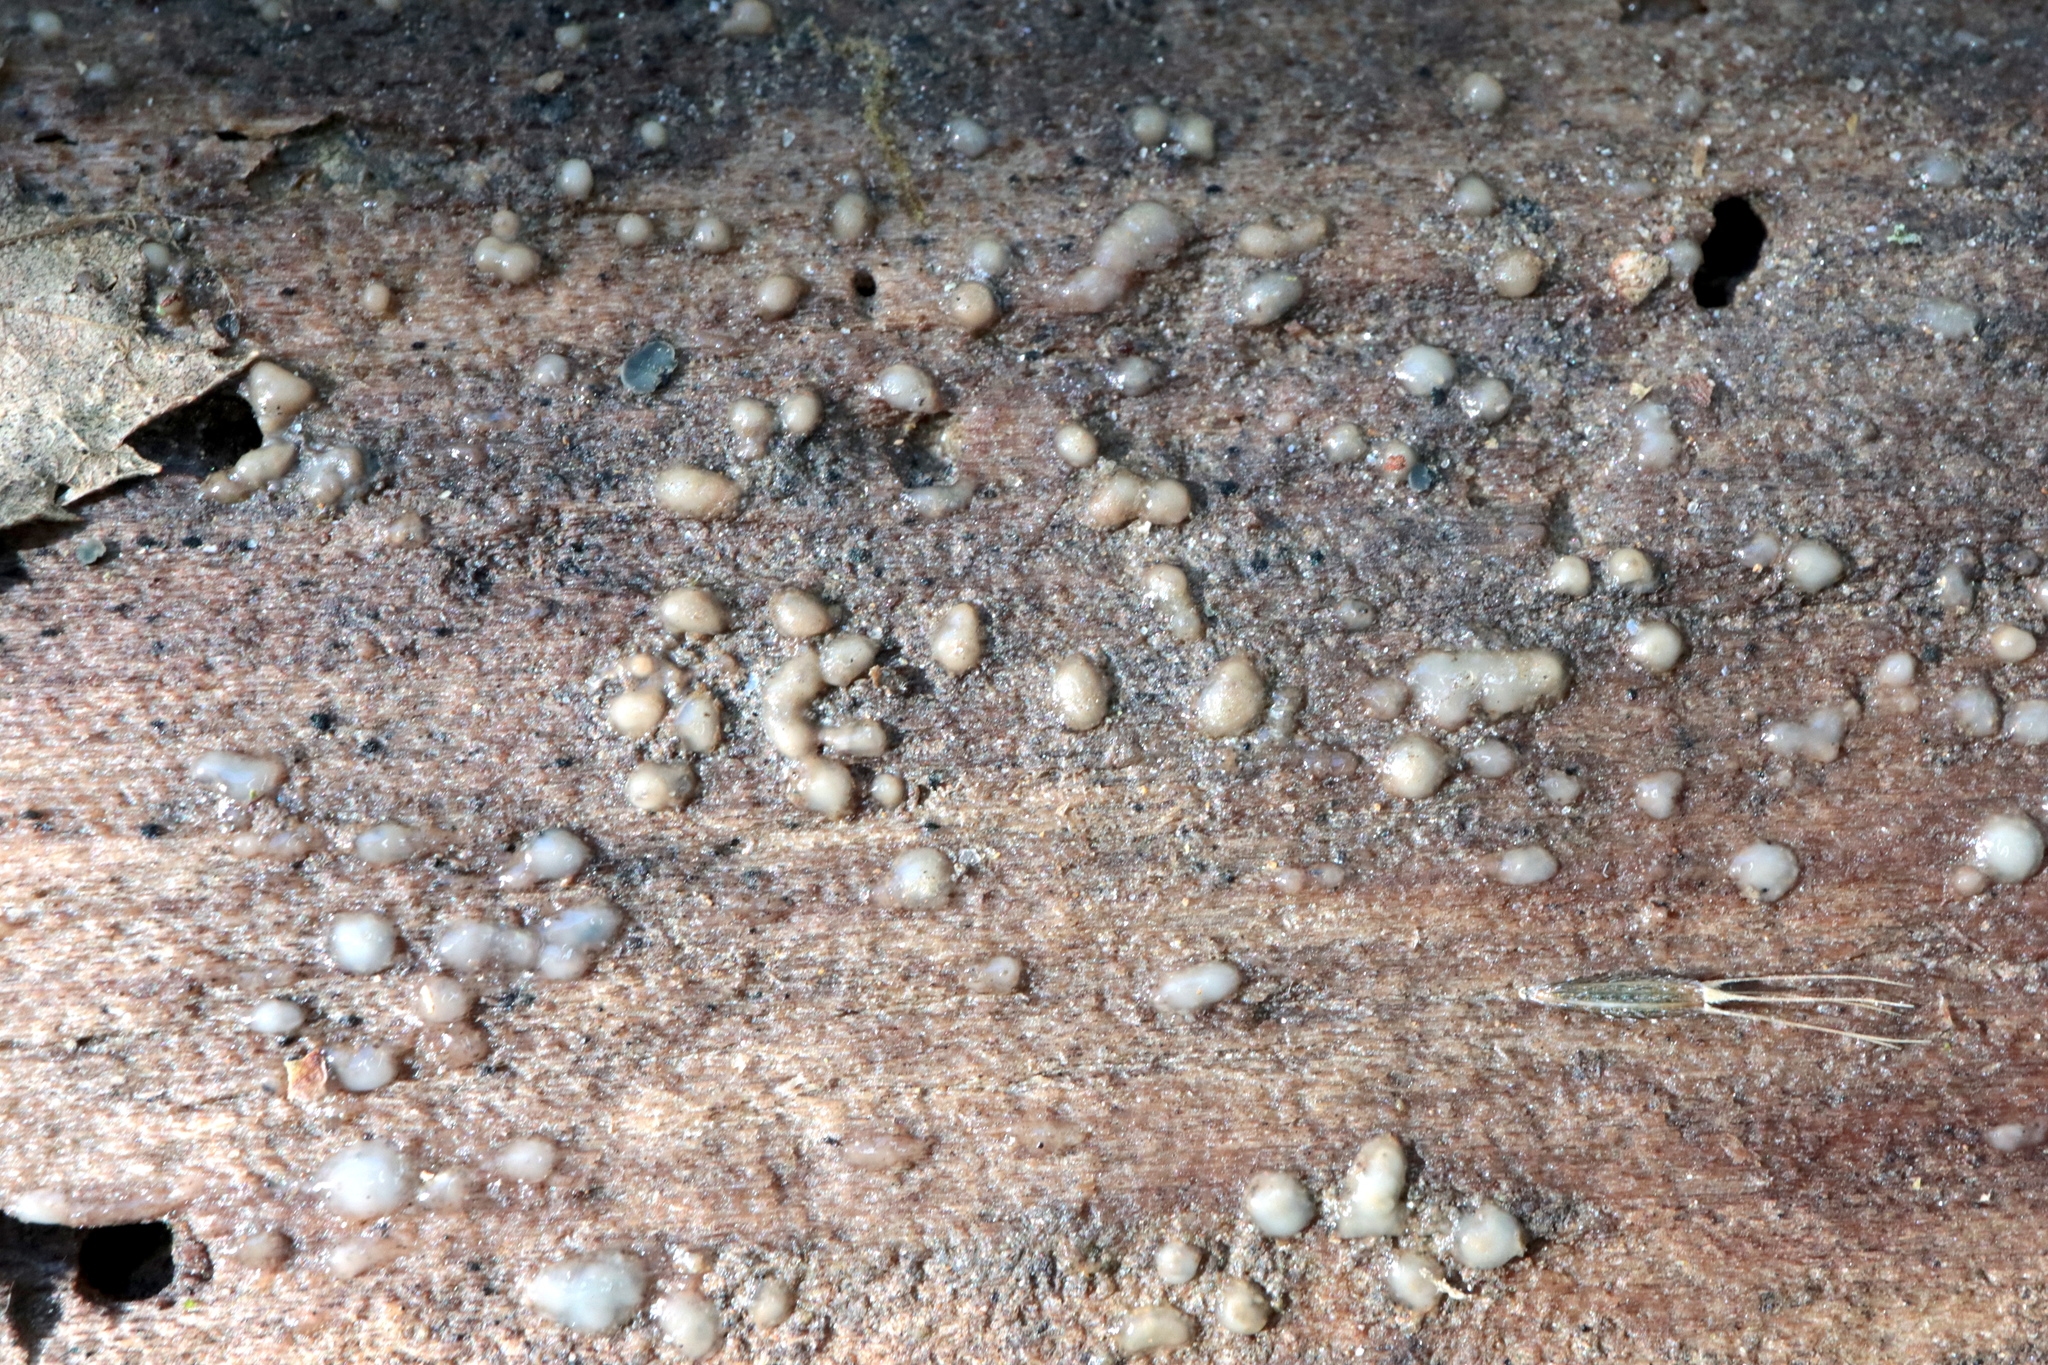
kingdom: Fungi
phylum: Basidiomycota
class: Atractiellomycetes
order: Atractiellales
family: Phleogenaceae
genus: Helicogloea
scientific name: Helicogloea compressa
